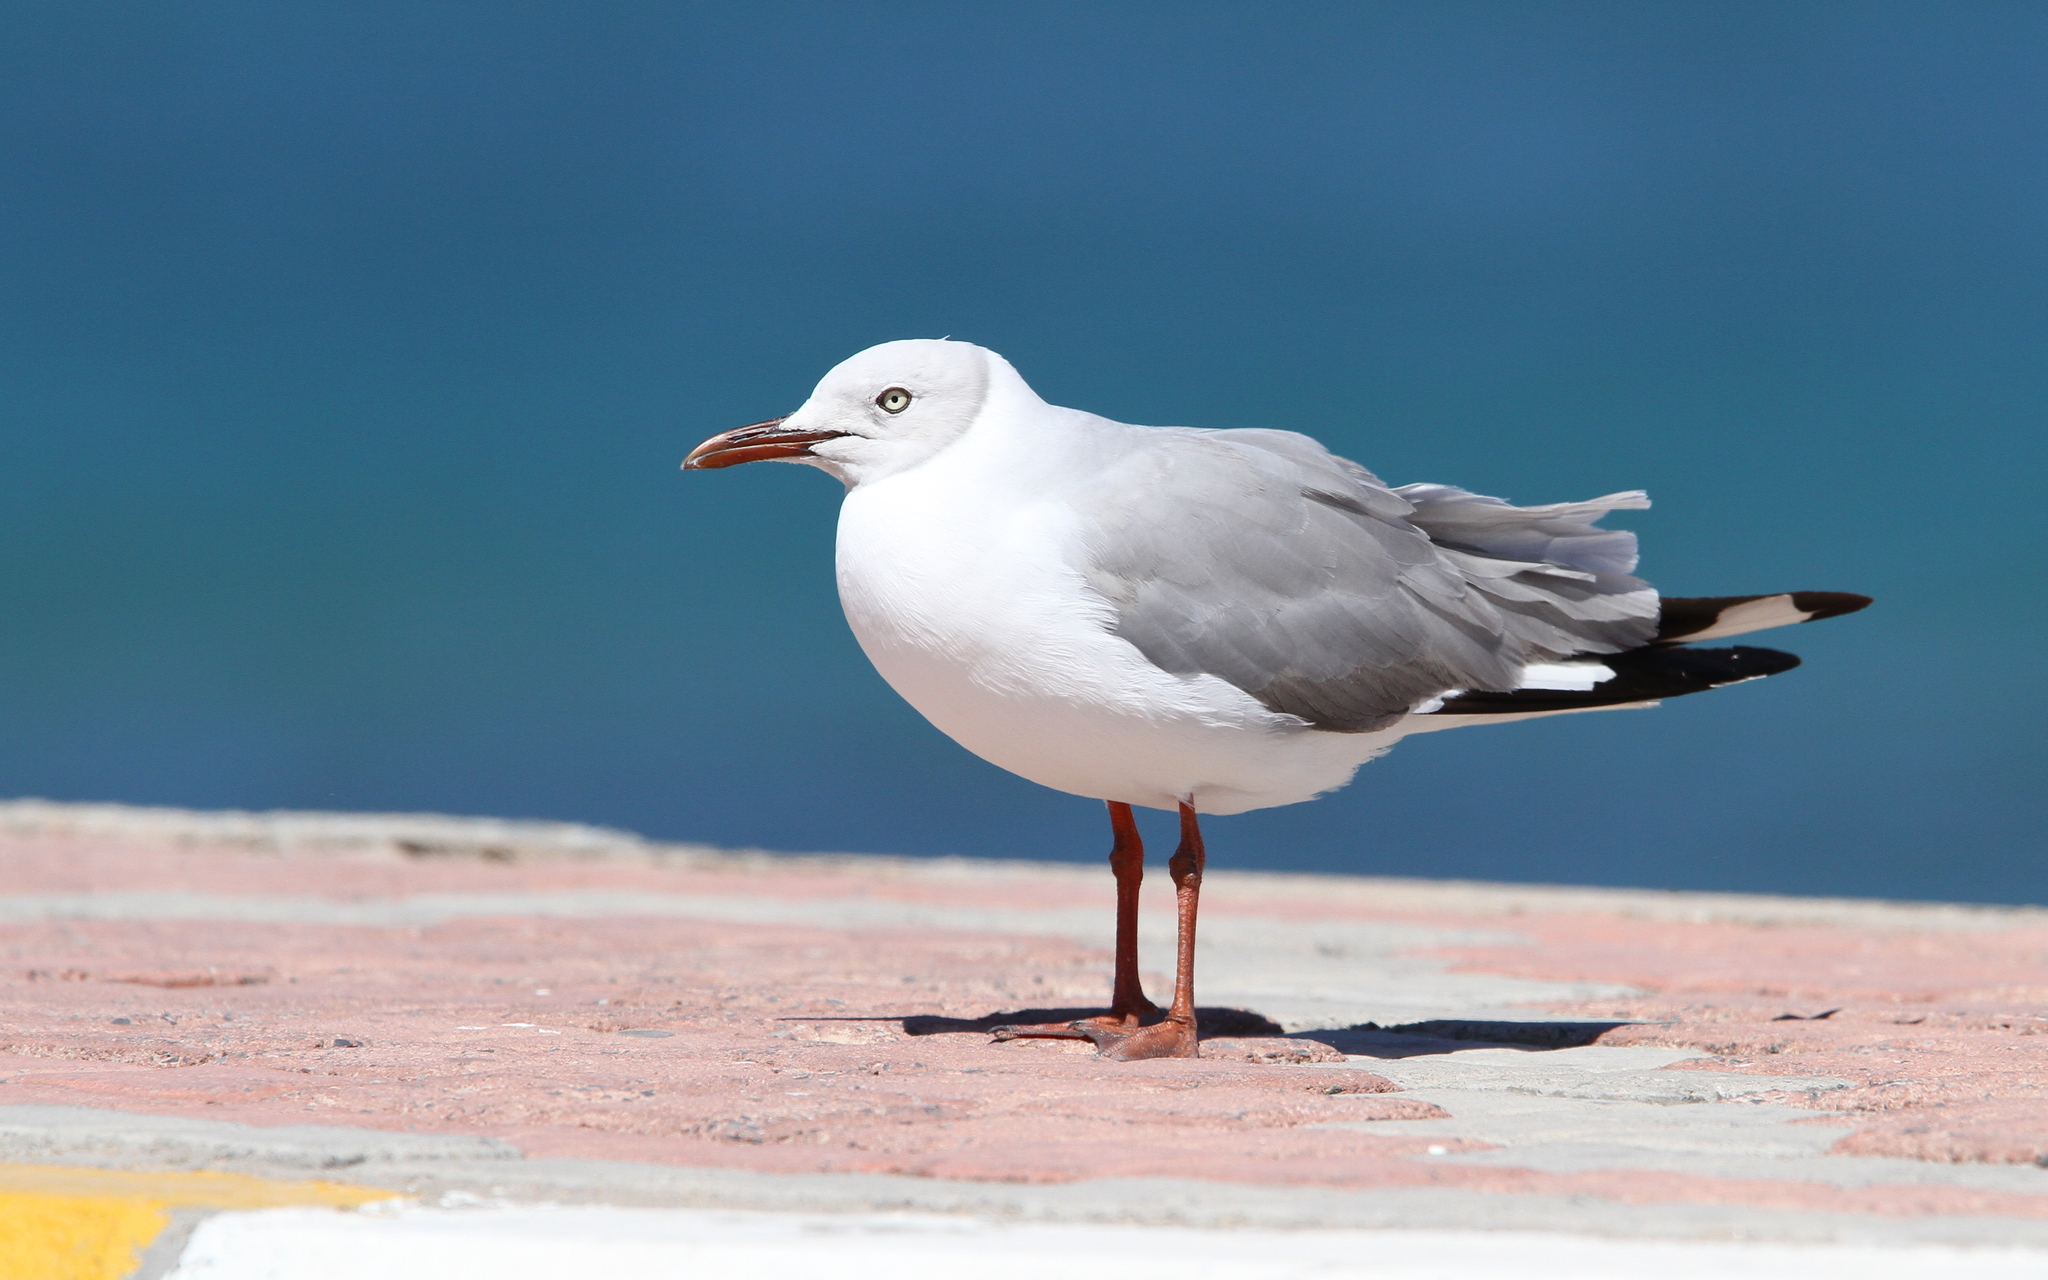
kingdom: Animalia
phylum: Chordata
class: Aves
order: Charadriiformes
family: Laridae
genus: Chroicocephalus
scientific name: Chroicocephalus cirrocephalus
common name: Grey-headed gull
